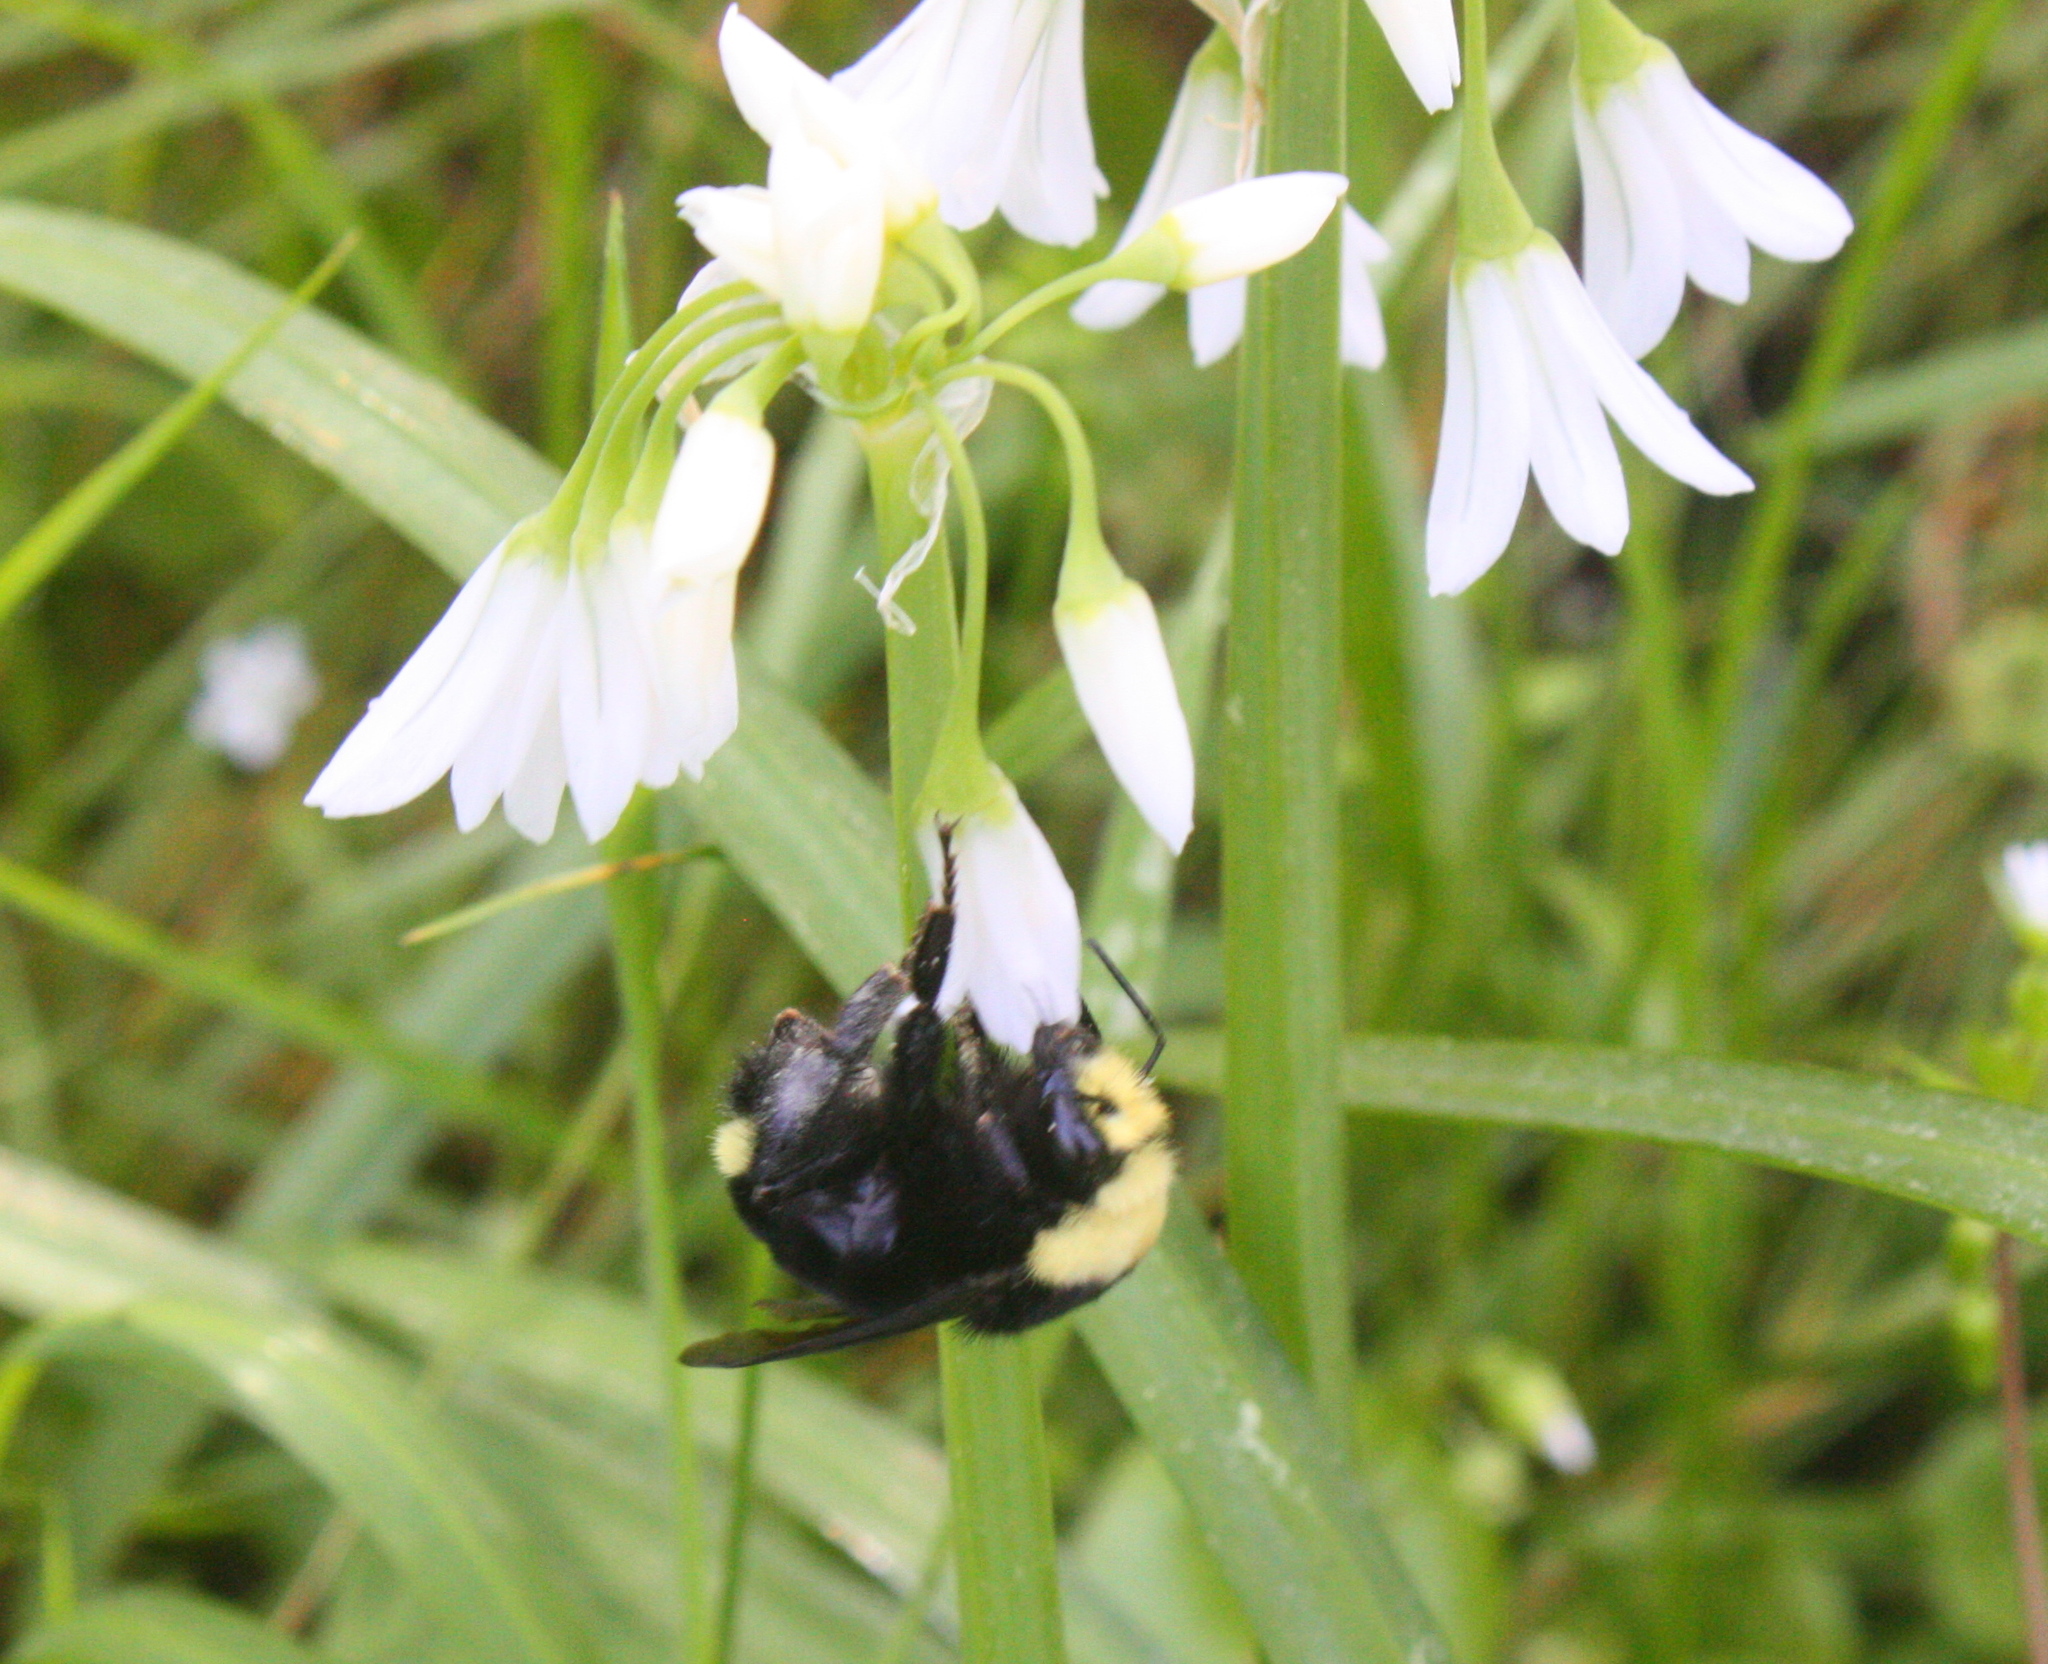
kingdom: Animalia
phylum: Arthropoda
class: Insecta
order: Hymenoptera
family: Apidae
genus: Bombus
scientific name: Bombus vosnesenskii
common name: Vosnesensky bumble bee
